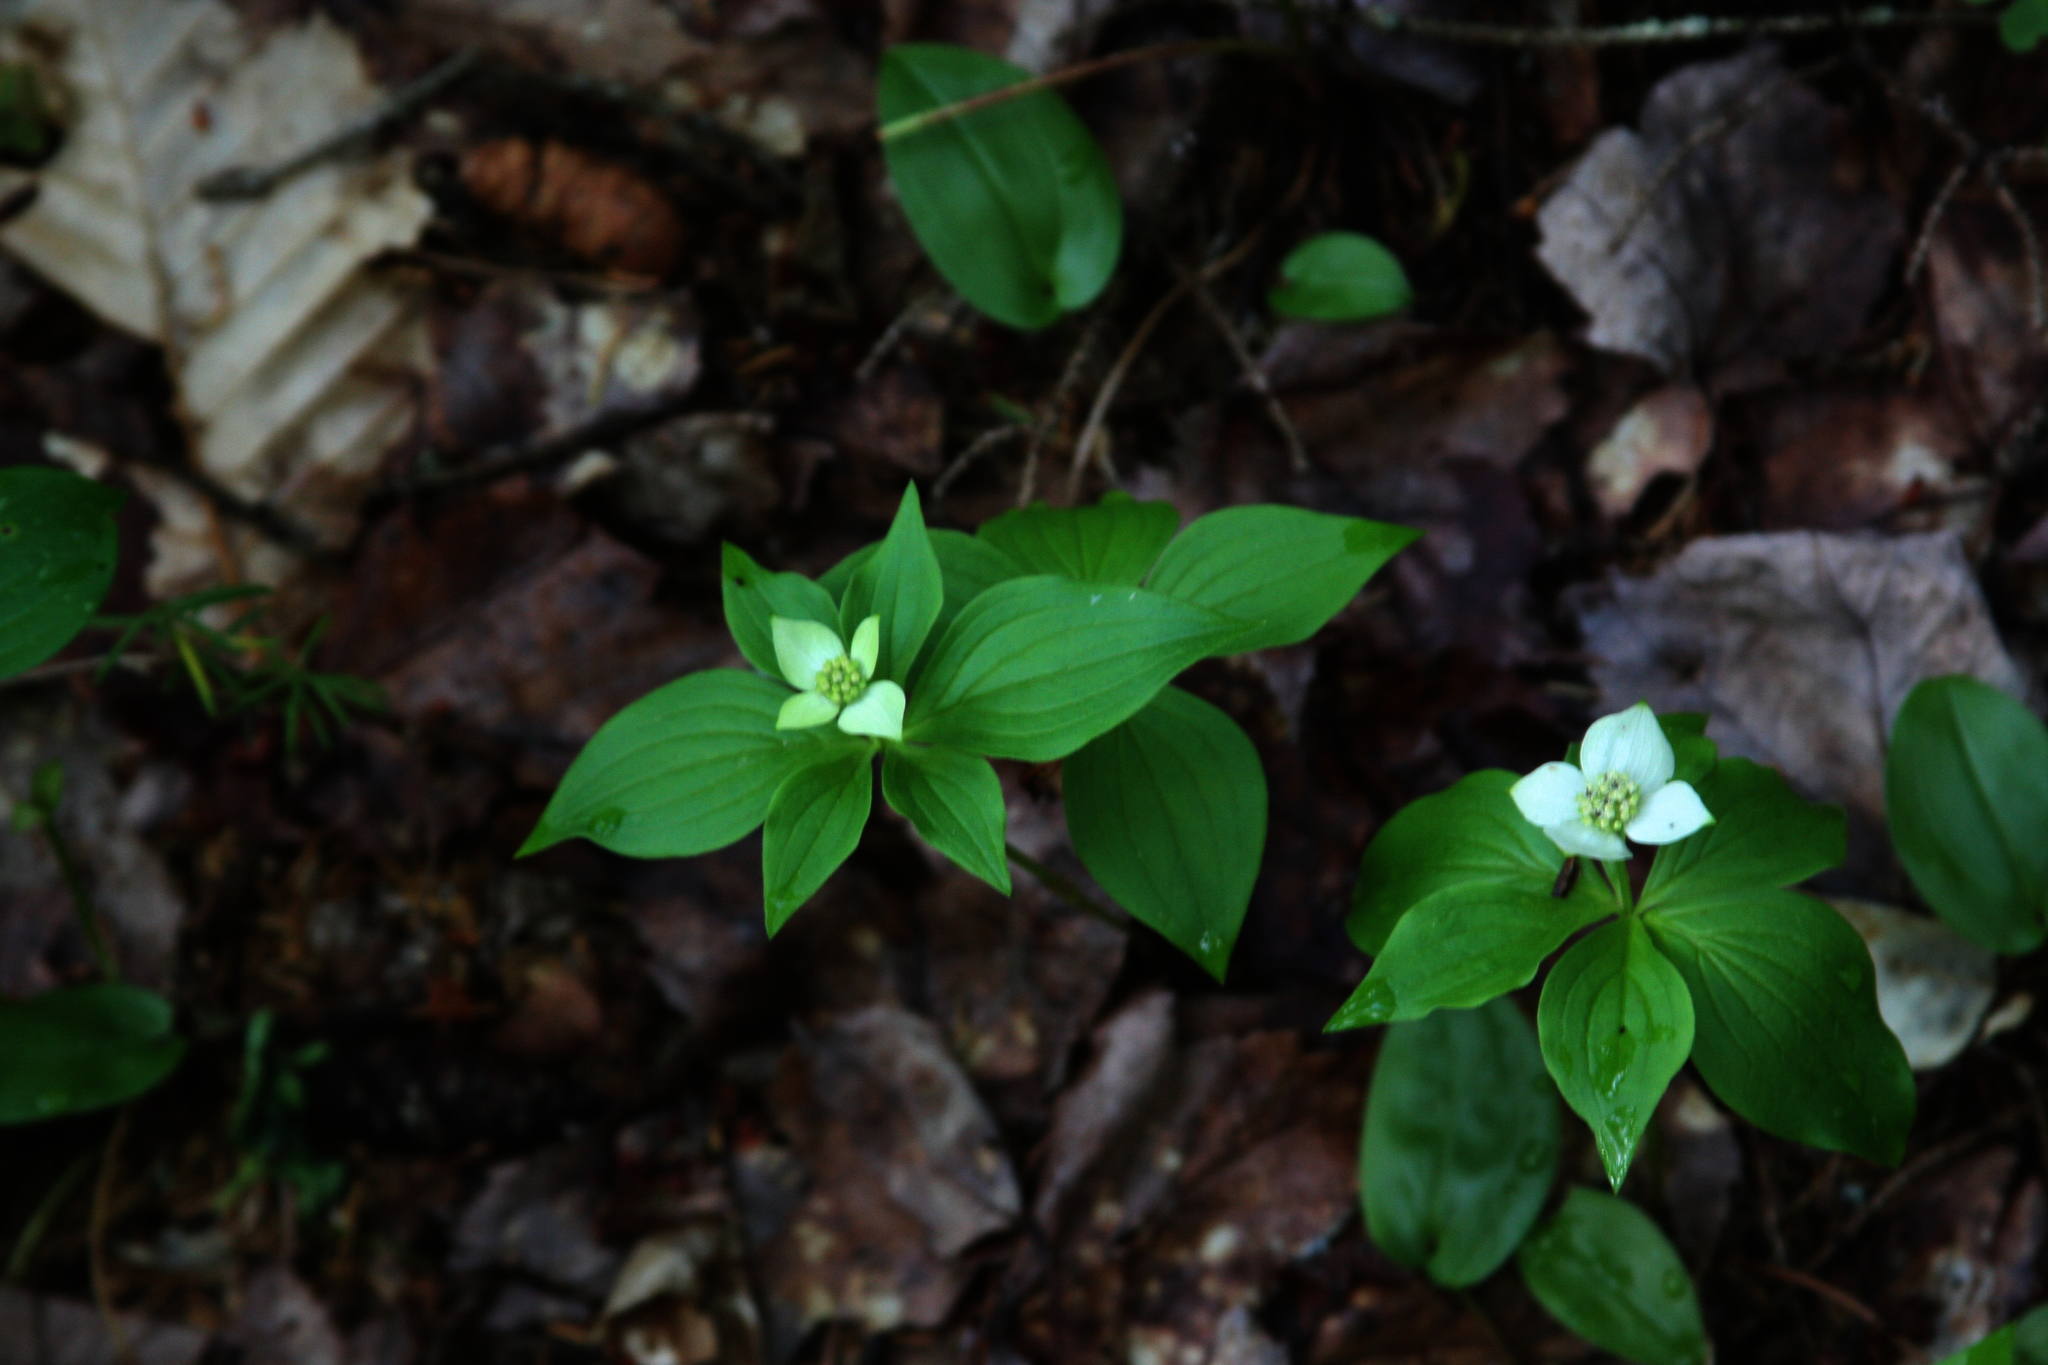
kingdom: Plantae
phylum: Tracheophyta
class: Magnoliopsida
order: Cornales
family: Cornaceae
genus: Cornus
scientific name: Cornus canadensis
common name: Creeping dogwood
